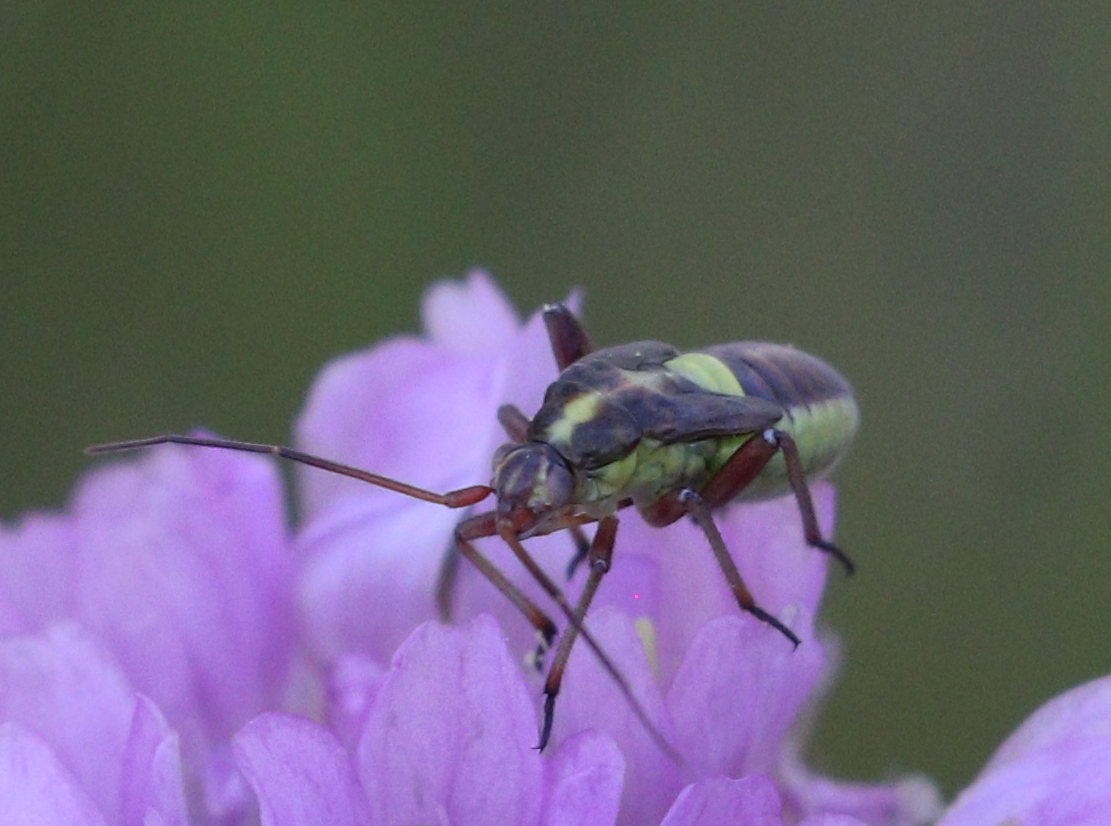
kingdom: Animalia
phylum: Arthropoda
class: Insecta
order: Hemiptera
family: Miridae
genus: Calocoris
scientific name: Calocoris roseomaculatus
